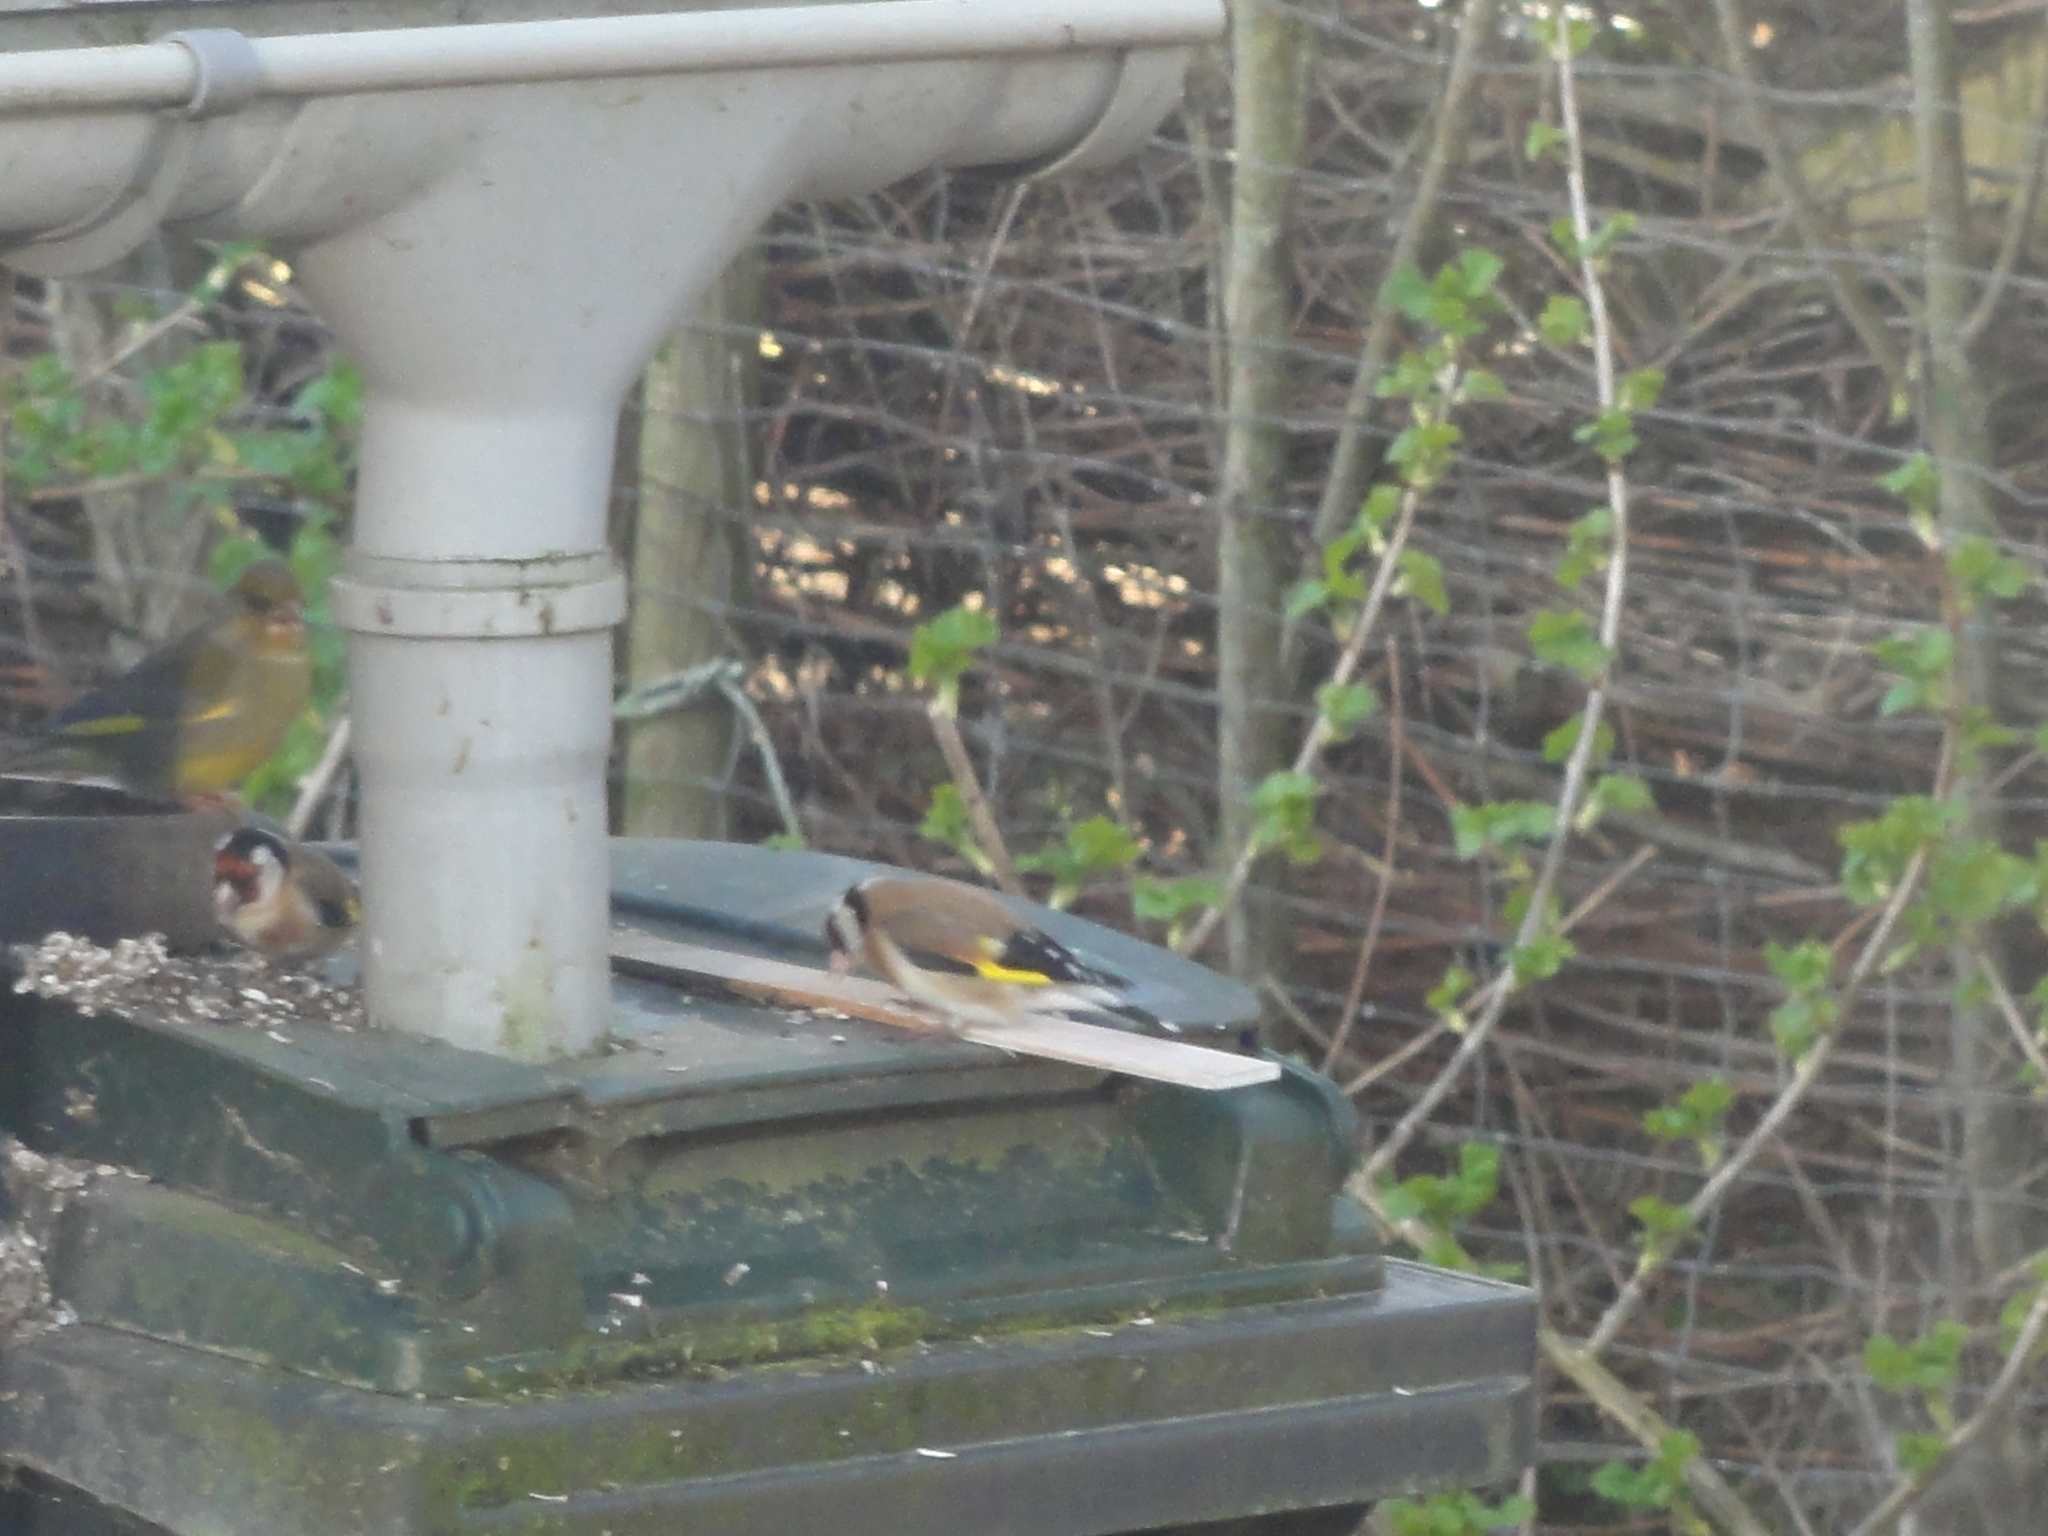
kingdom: Animalia
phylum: Chordata
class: Aves
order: Passeriformes
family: Fringillidae
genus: Carduelis
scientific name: Carduelis carduelis
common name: European goldfinch
